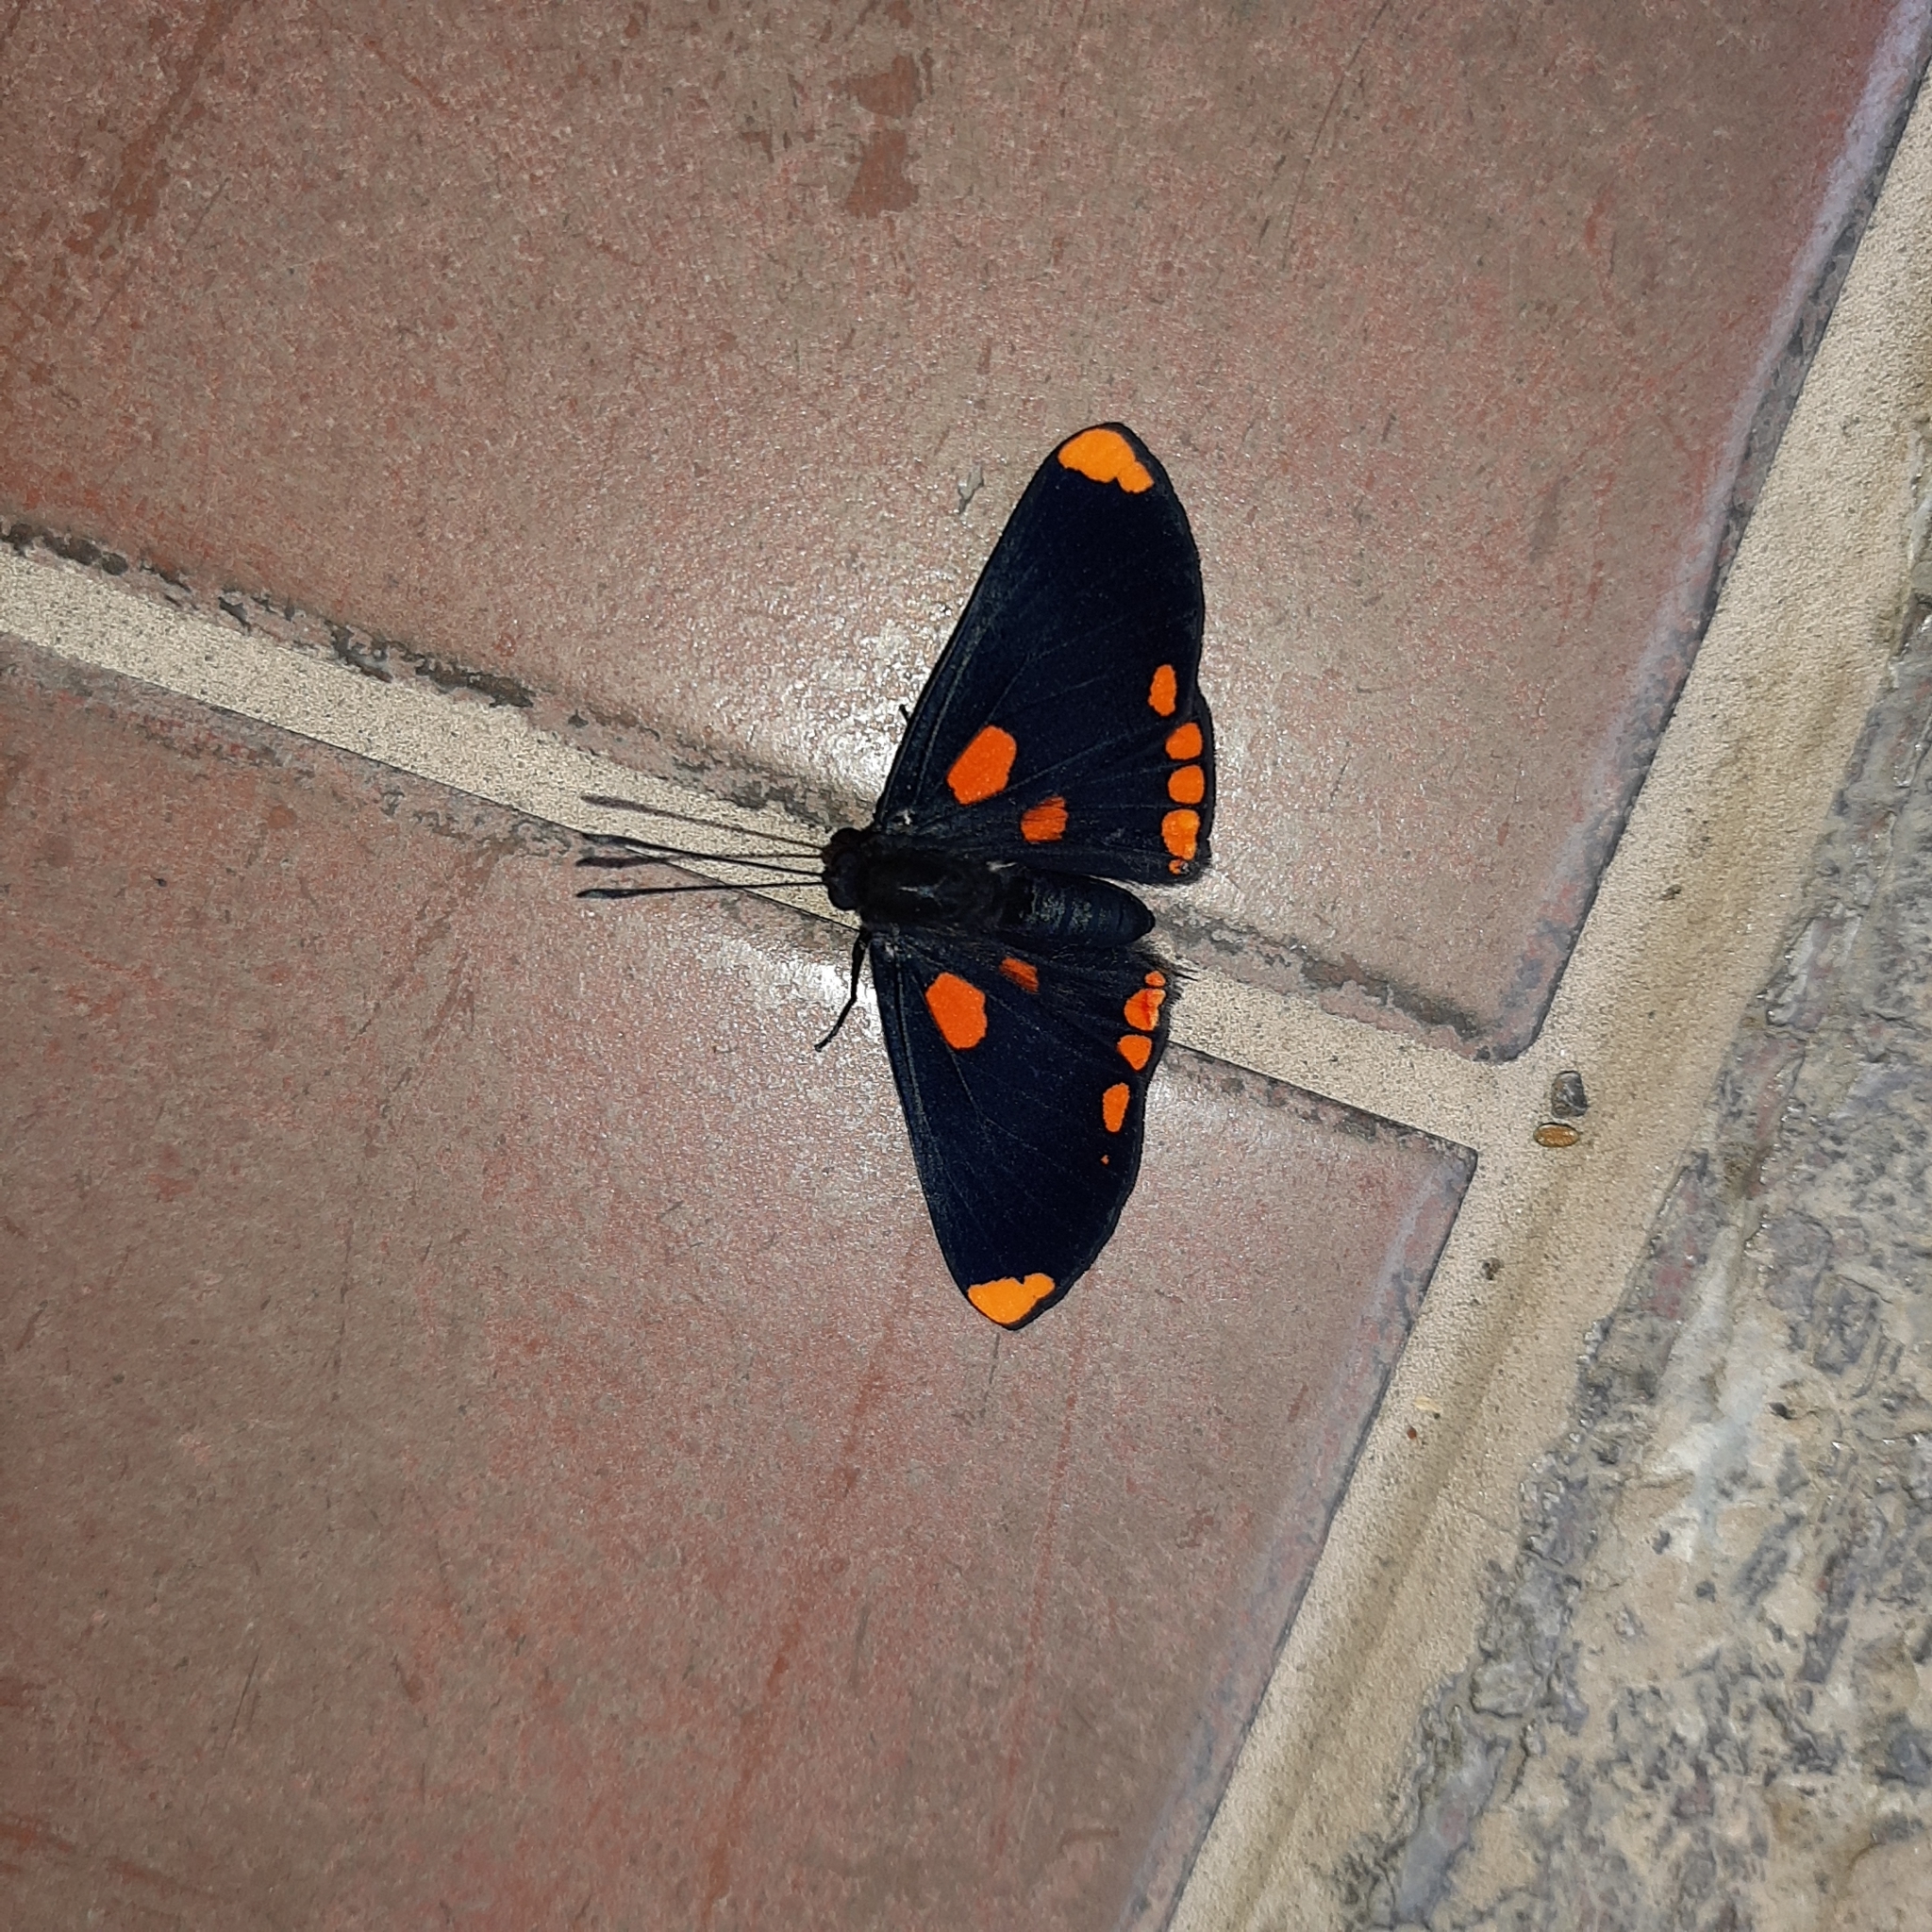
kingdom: Animalia
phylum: Arthropoda
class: Insecta
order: Lepidoptera
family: Lycaenidae
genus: Melanis
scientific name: Melanis pixe
